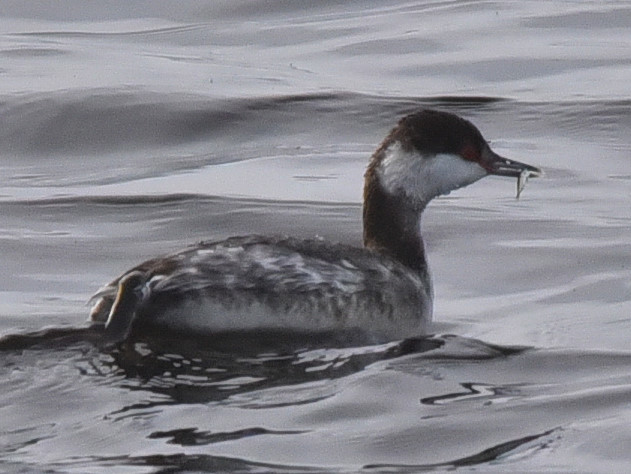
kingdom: Animalia
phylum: Chordata
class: Aves
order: Podicipediformes
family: Podicipedidae
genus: Podiceps
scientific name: Podiceps auritus
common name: Horned grebe
